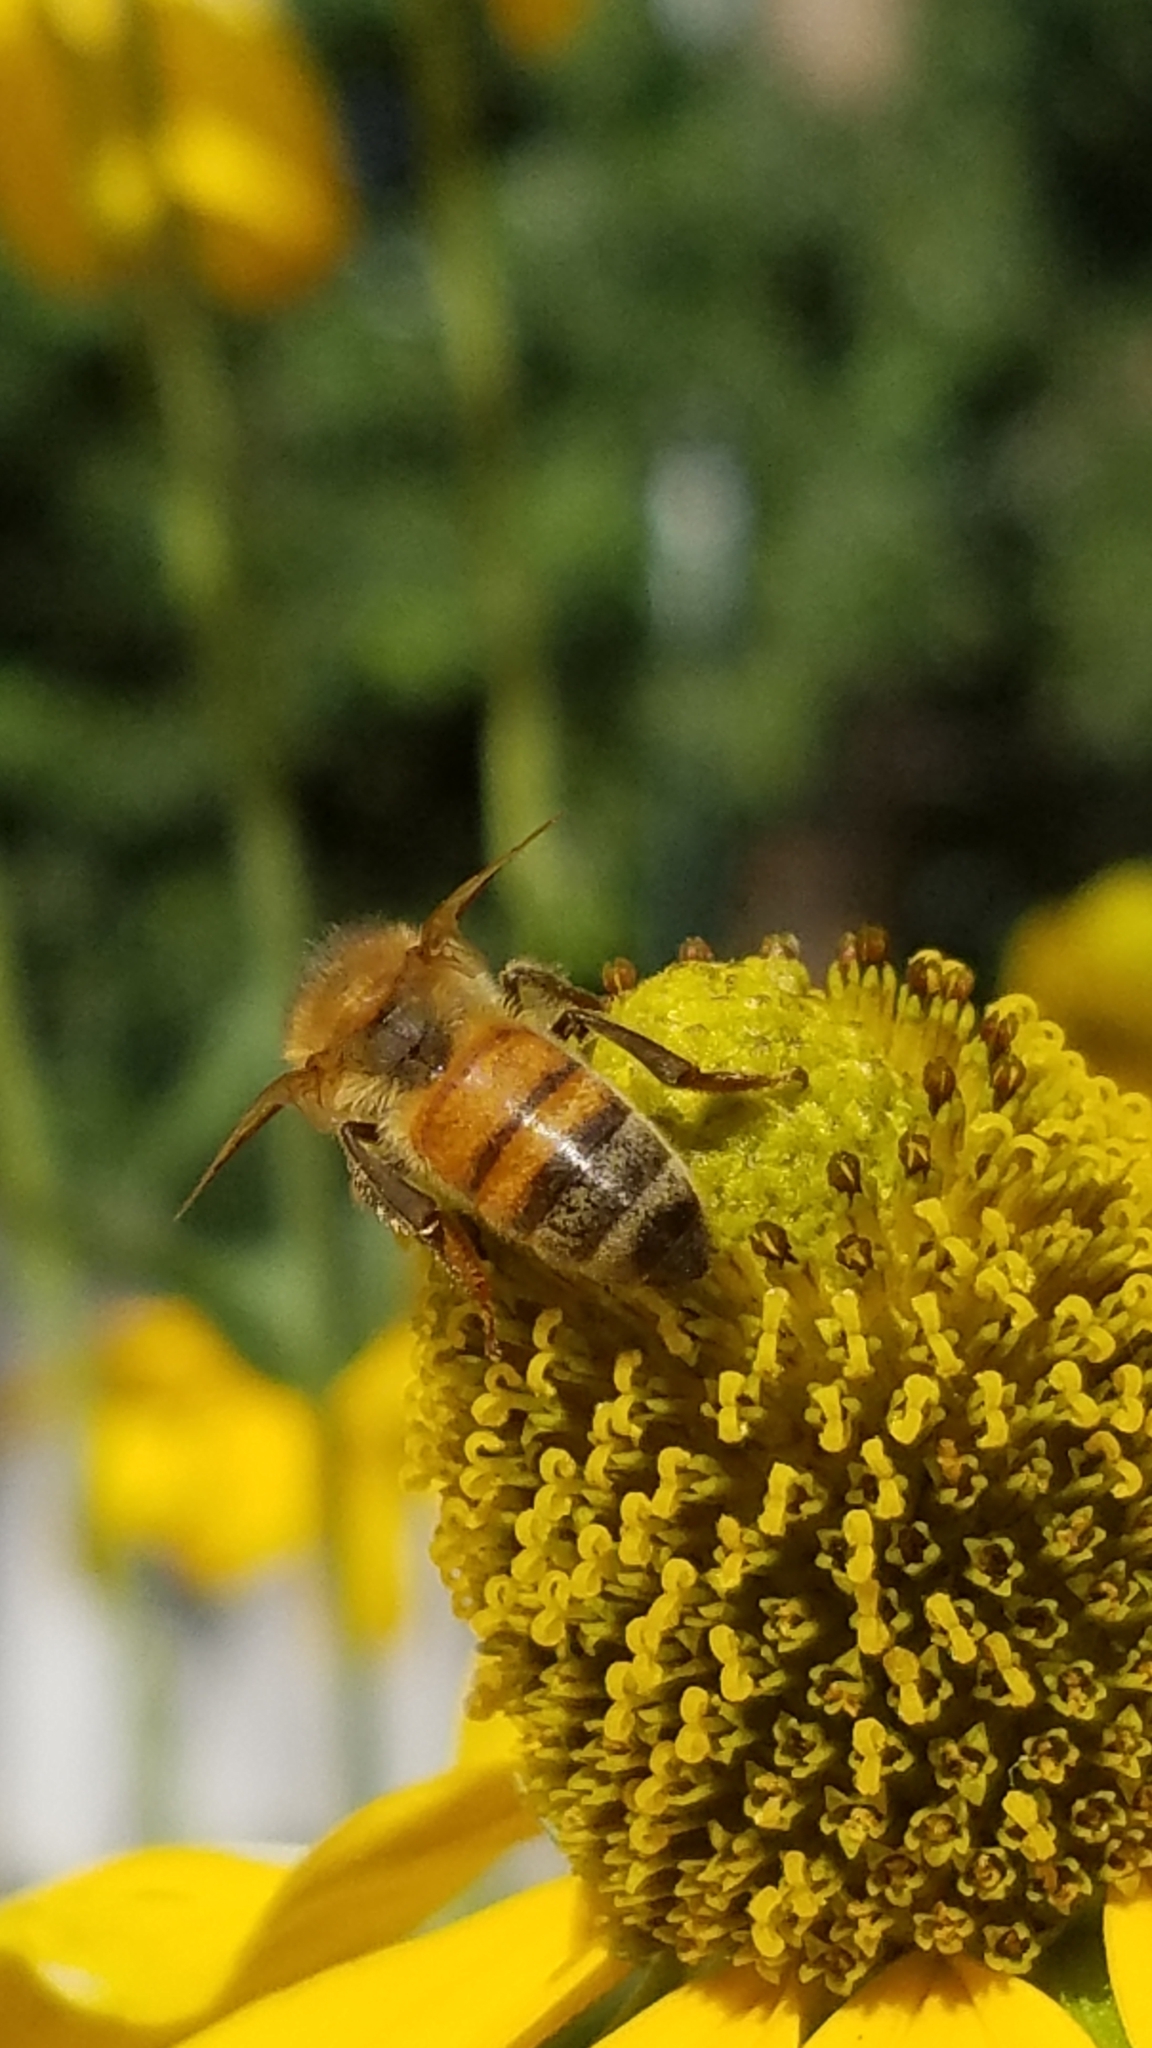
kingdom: Animalia
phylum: Arthropoda
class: Insecta
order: Hymenoptera
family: Apidae
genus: Apis
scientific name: Apis mellifera
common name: Honey bee
